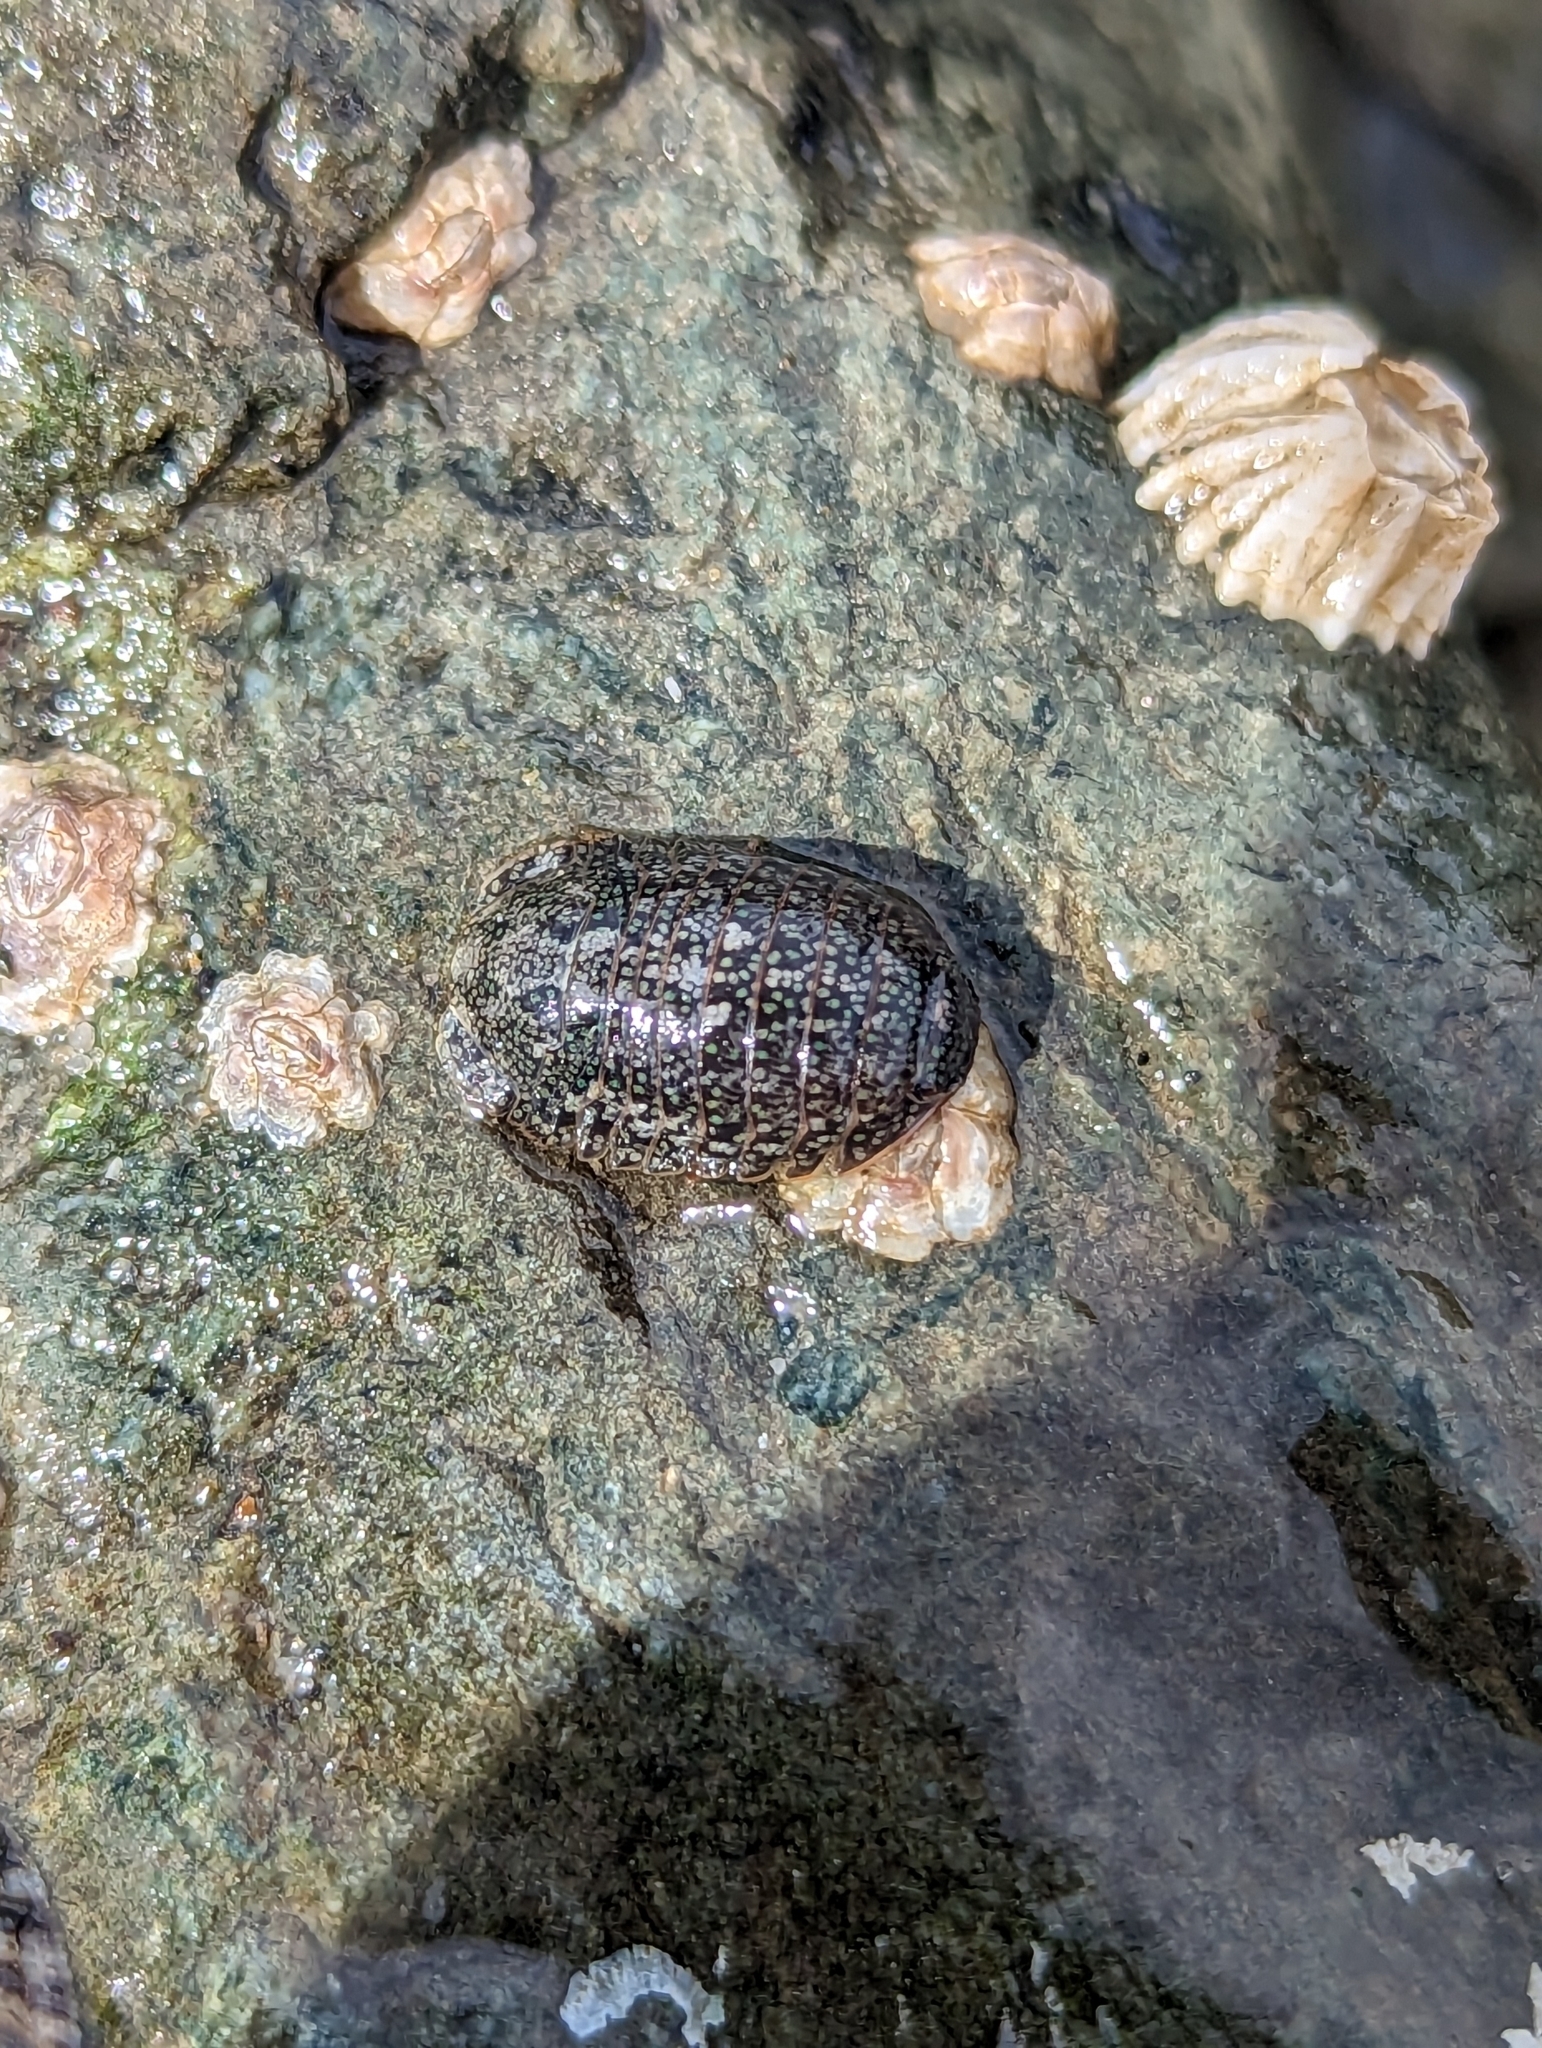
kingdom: Animalia
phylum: Arthropoda
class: Malacostraca
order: Isopoda
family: Sphaeromatidae
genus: Gnorimosphaeroma
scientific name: Gnorimosphaeroma oregonense
